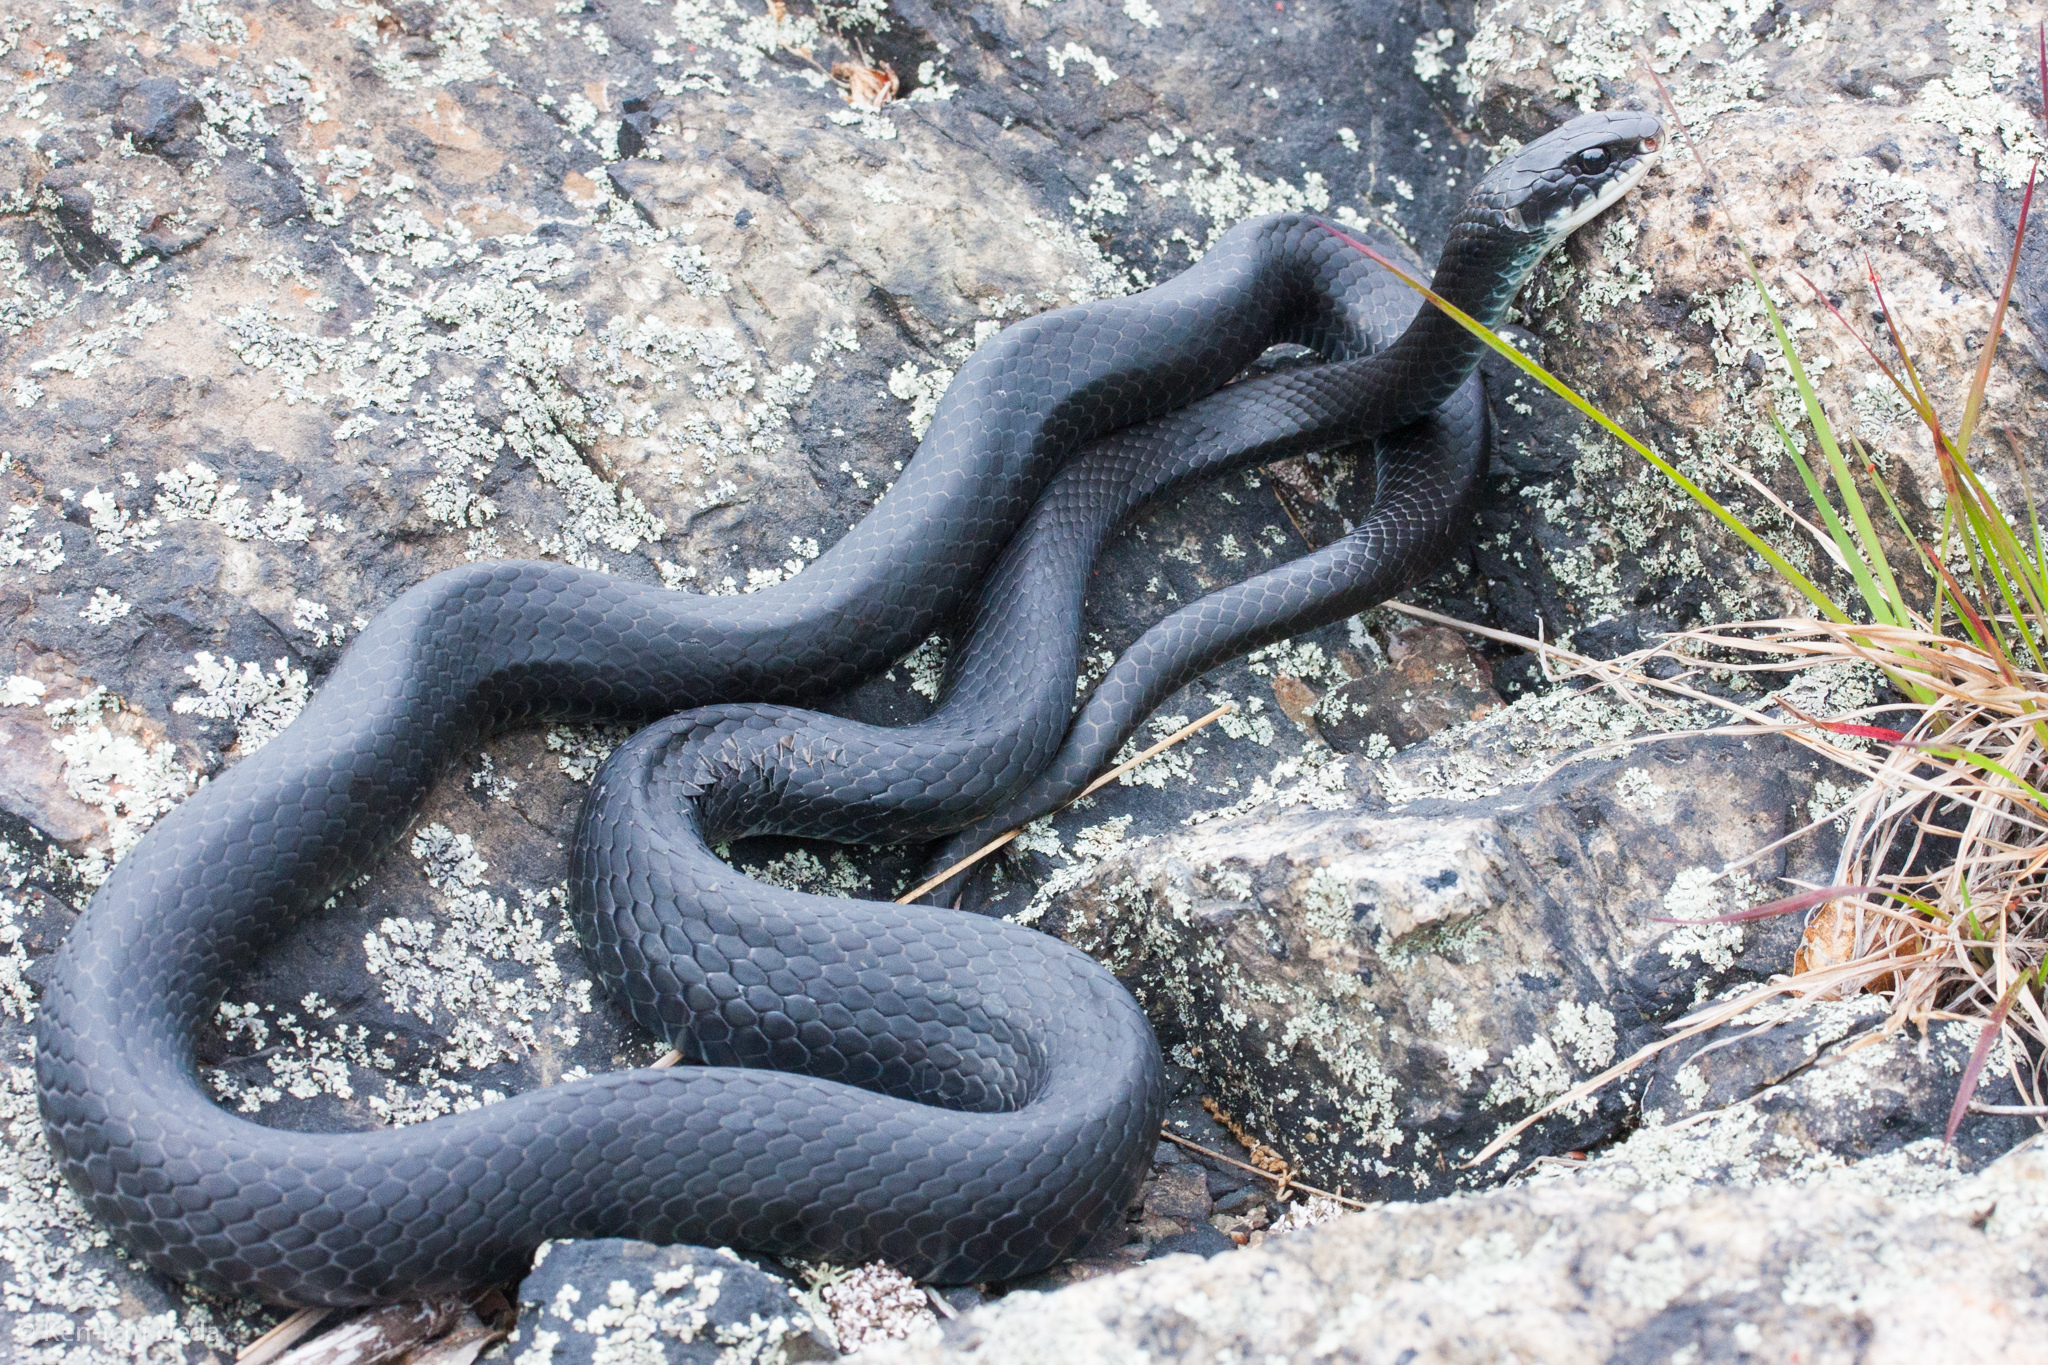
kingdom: Animalia
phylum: Chordata
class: Squamata
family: Colubridae
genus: Coluber
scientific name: Coluber constrictor
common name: Eastern racer
